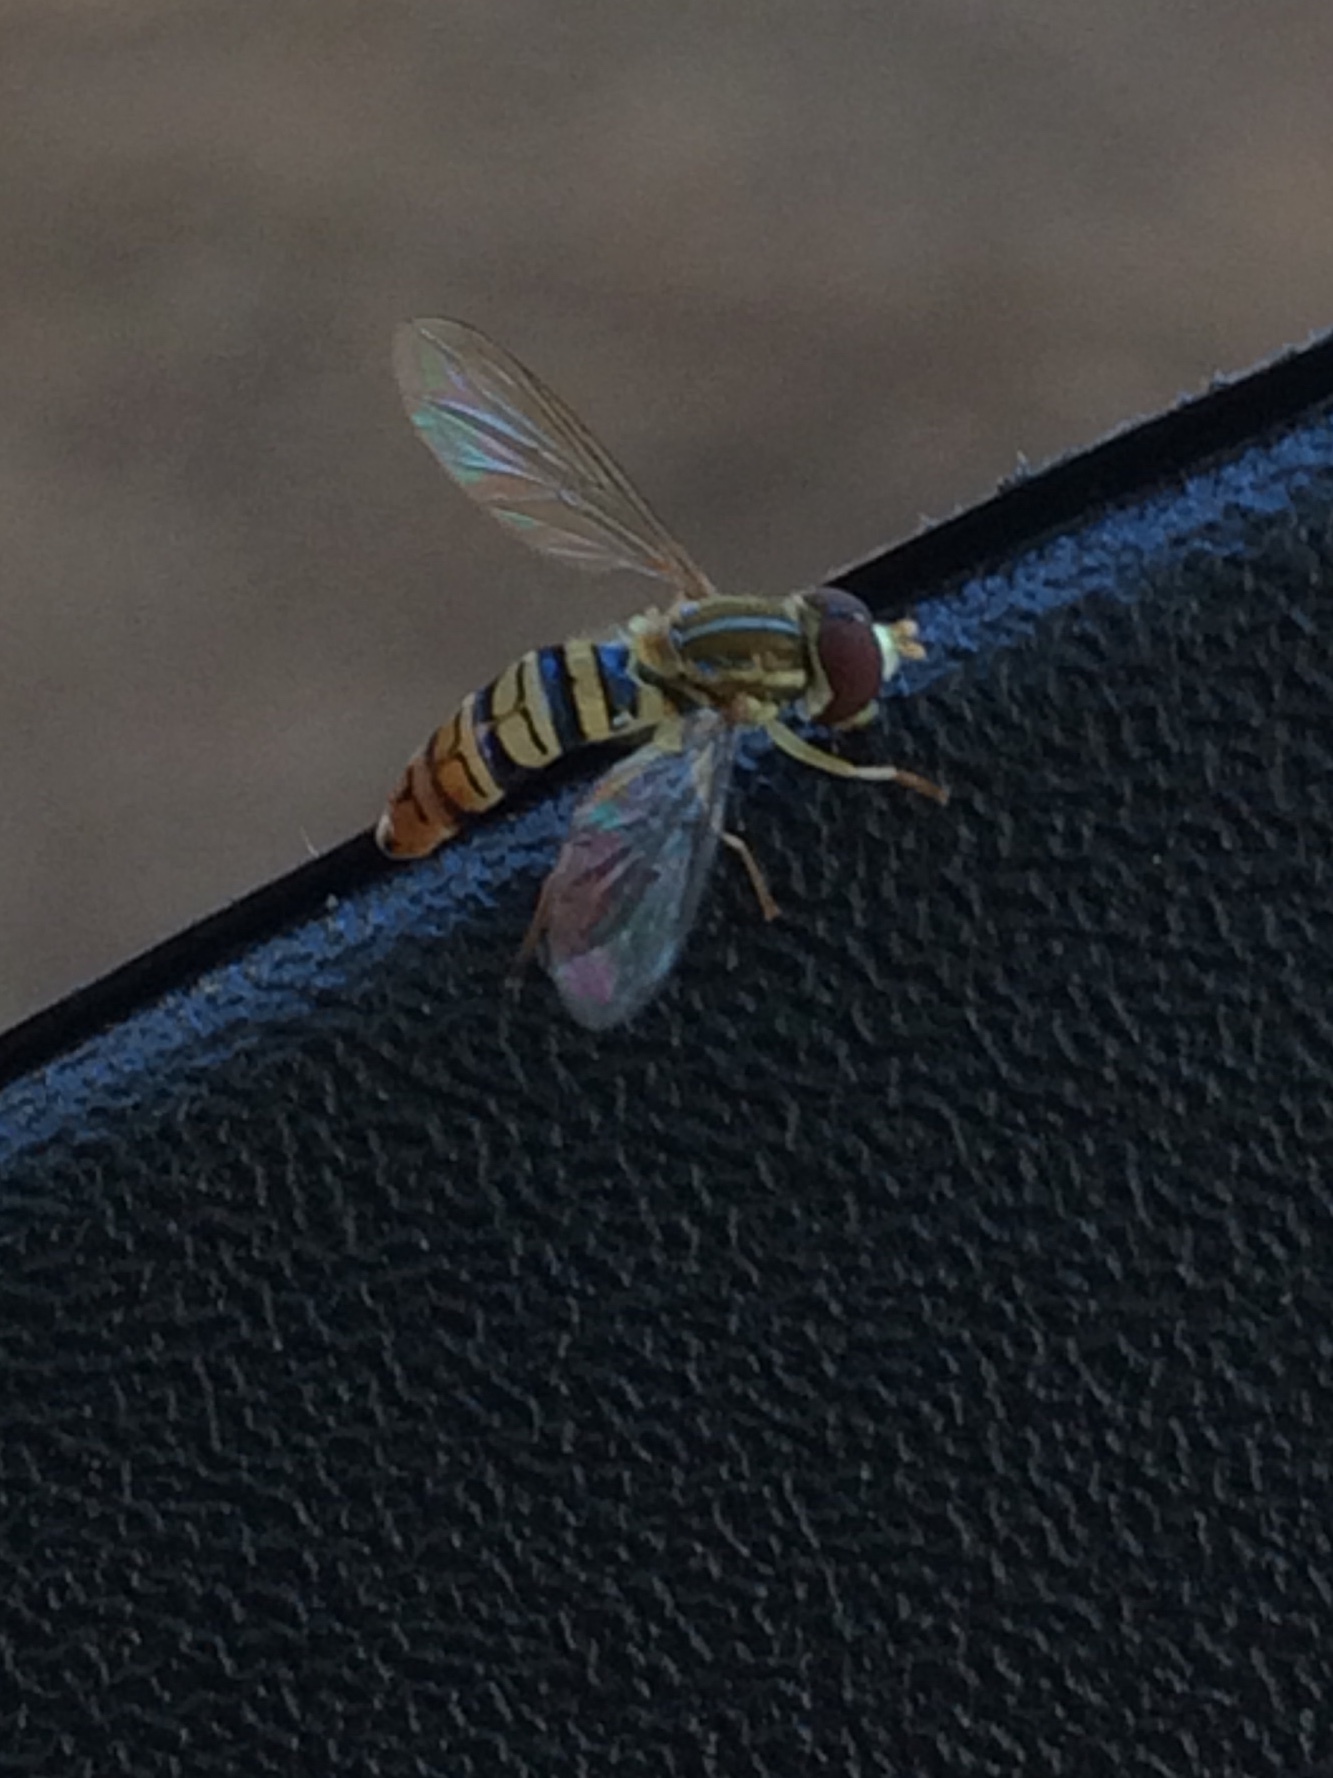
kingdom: Animalia
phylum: Arthropoda
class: Insecta
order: Diptera
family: Syrphidae
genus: Toxomerus
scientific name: Toxomerus politus
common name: Maize calligrapher
